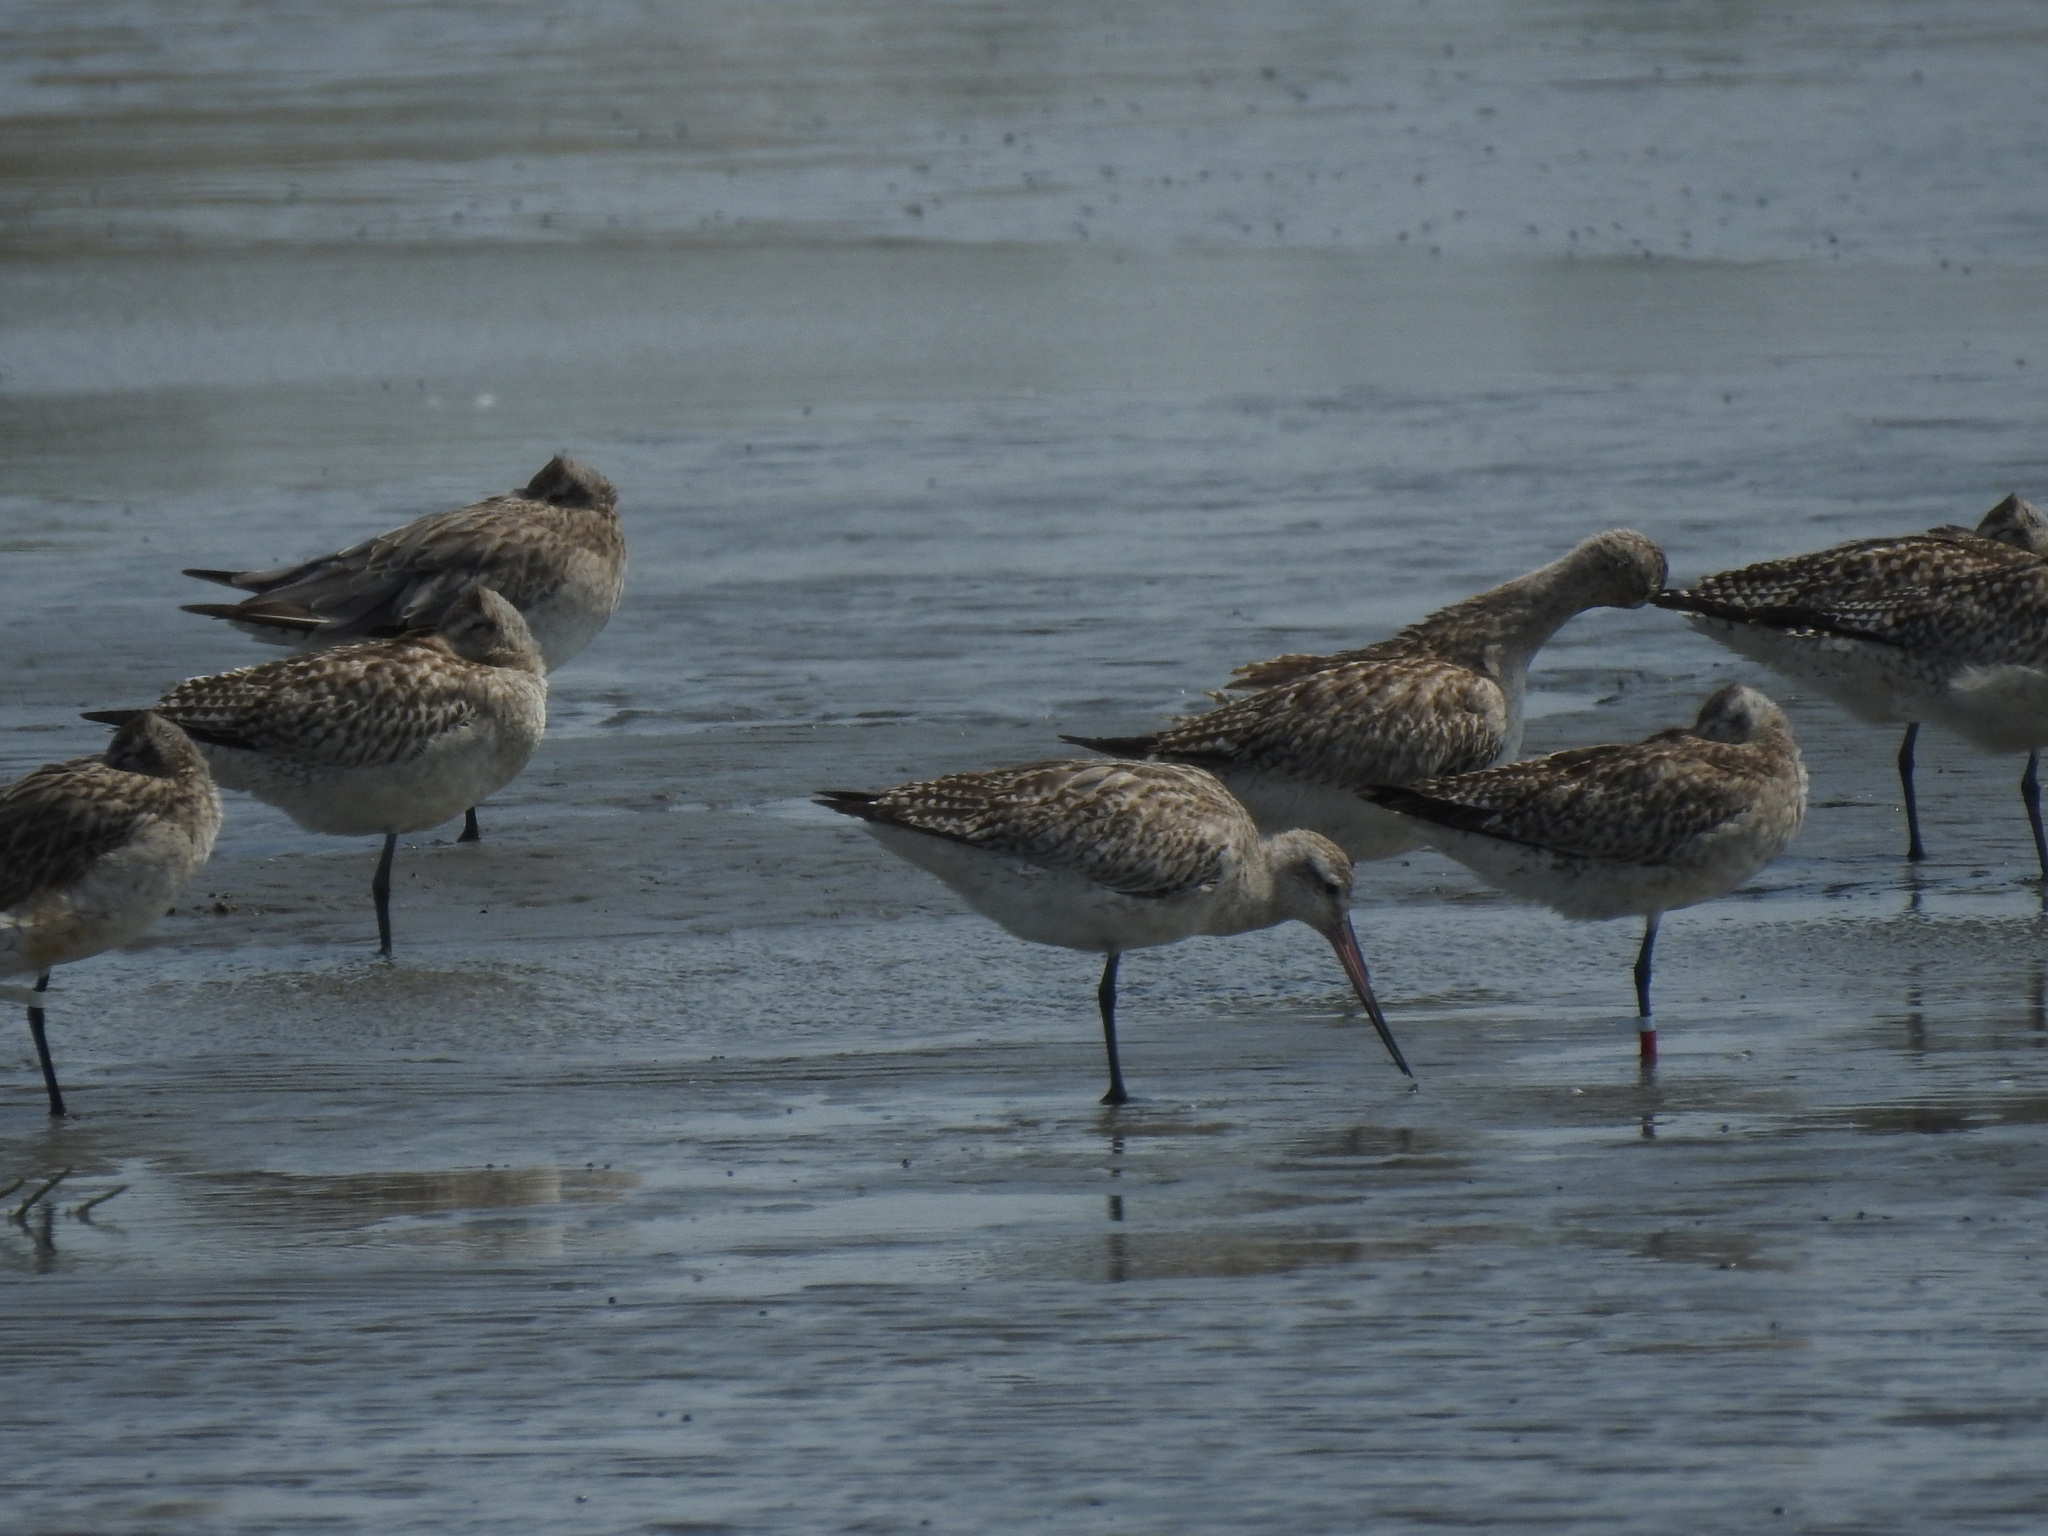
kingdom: Animalia
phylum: Chordata
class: Aves
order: Charadriiformes
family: Scolopacidae
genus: Limosa
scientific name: Limosa lapponica
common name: Bar-tailed godwit
